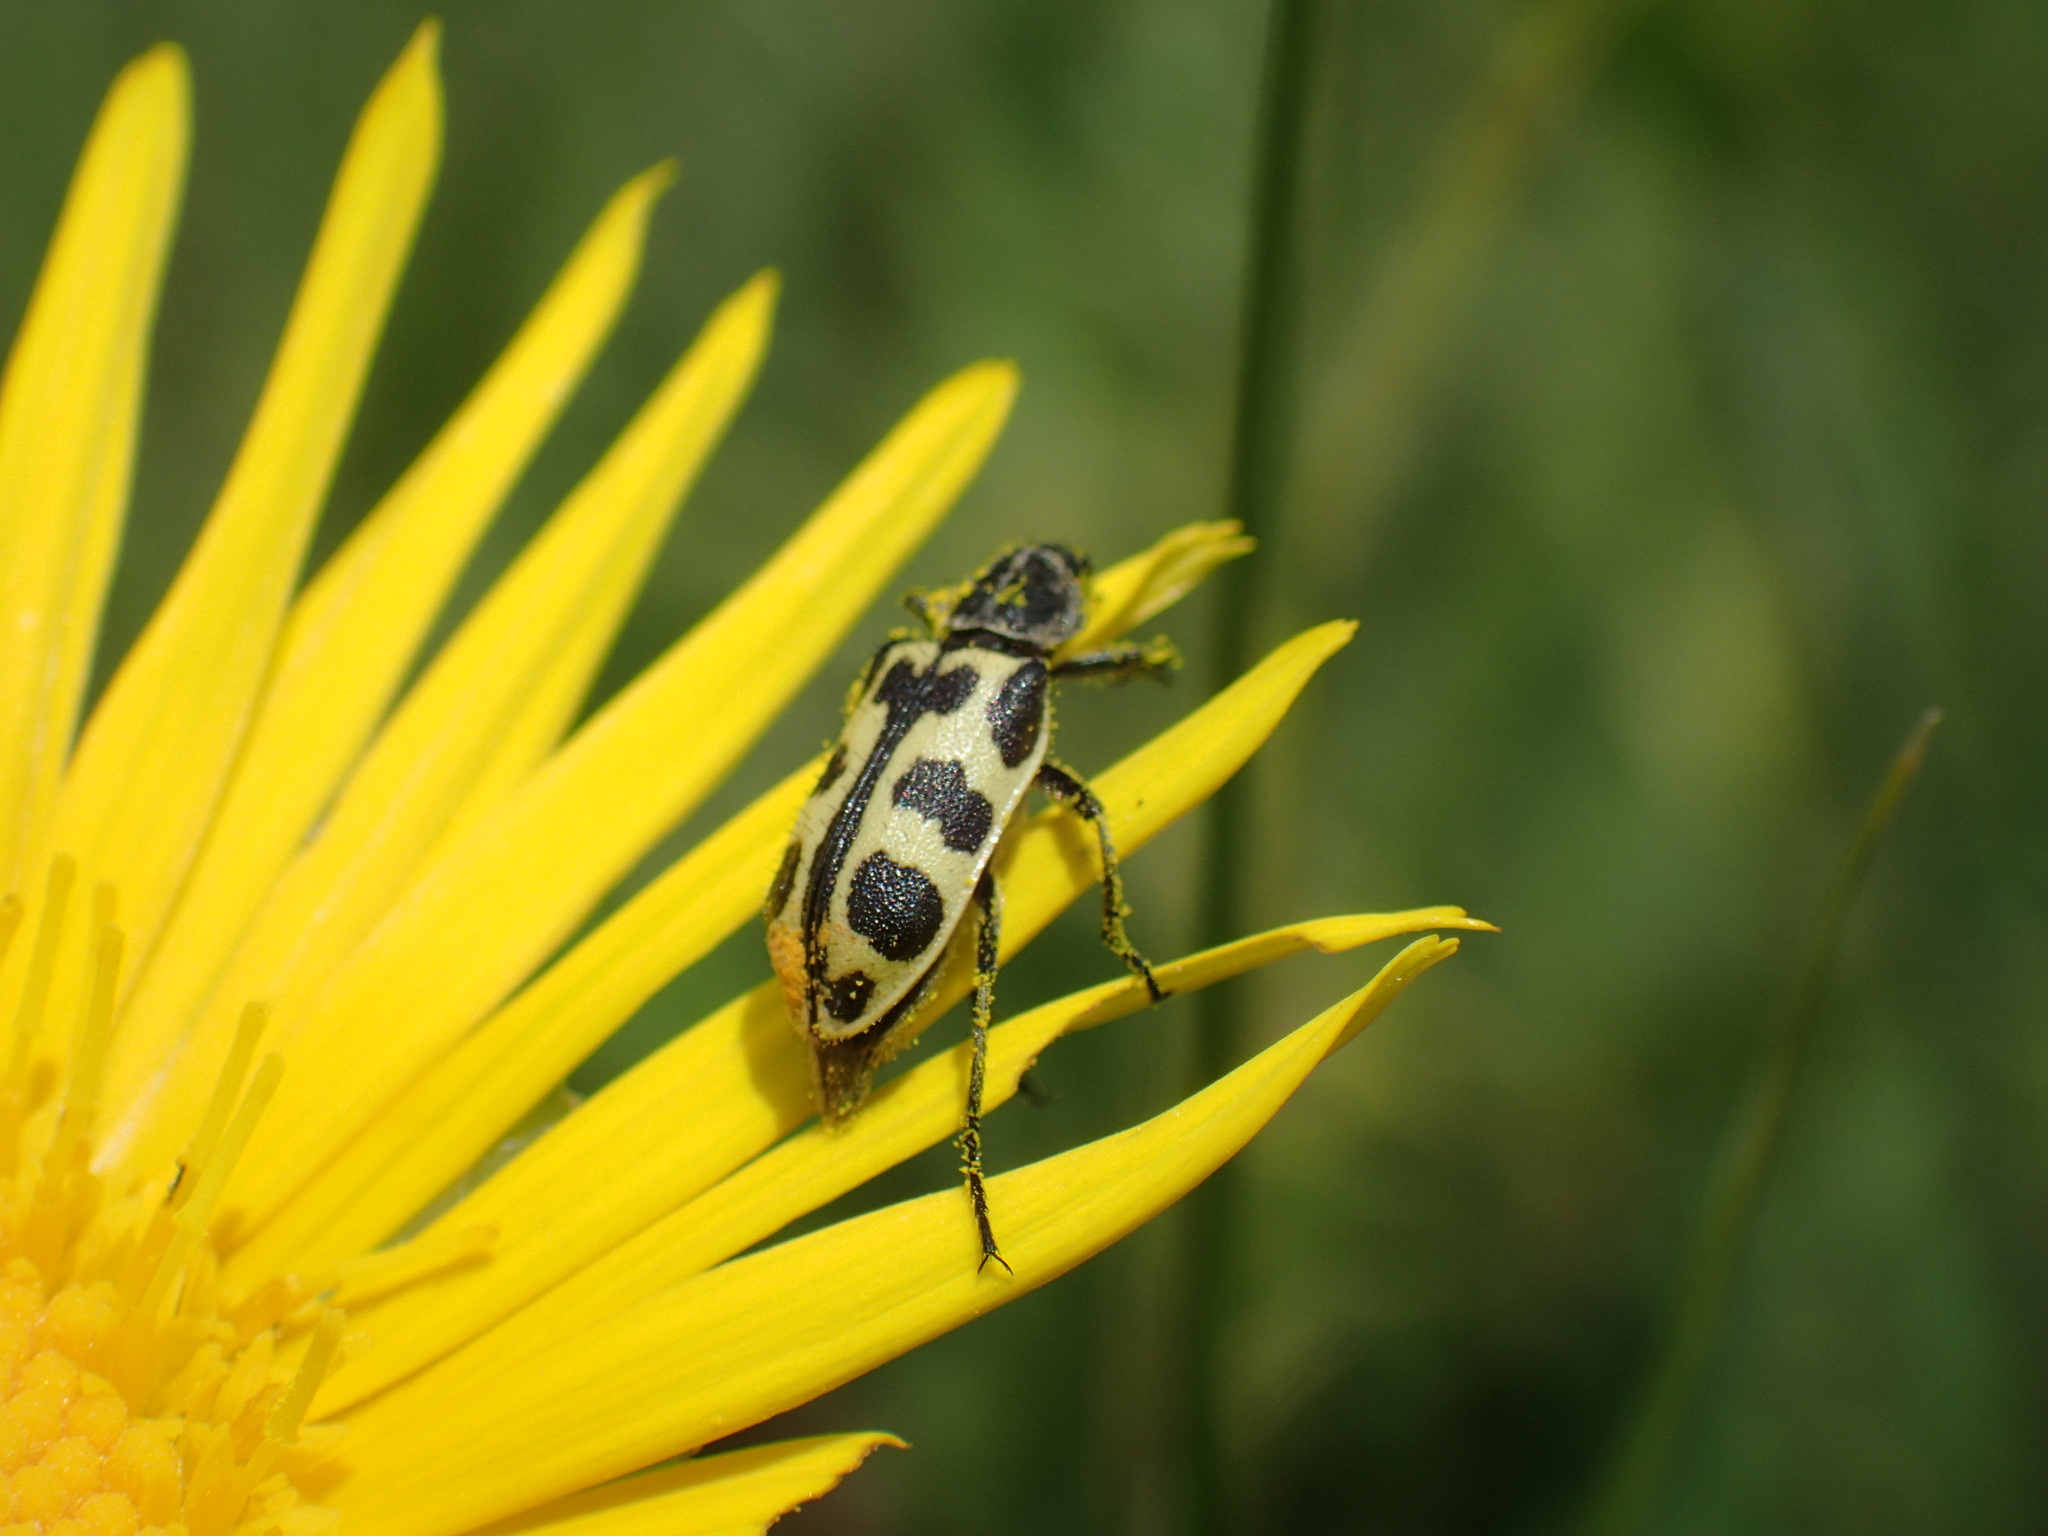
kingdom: Animalia
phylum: Arthropoda
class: Insecta
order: Coleoptera
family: Melyridae
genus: Astylus
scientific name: Astylus atromaculatus
